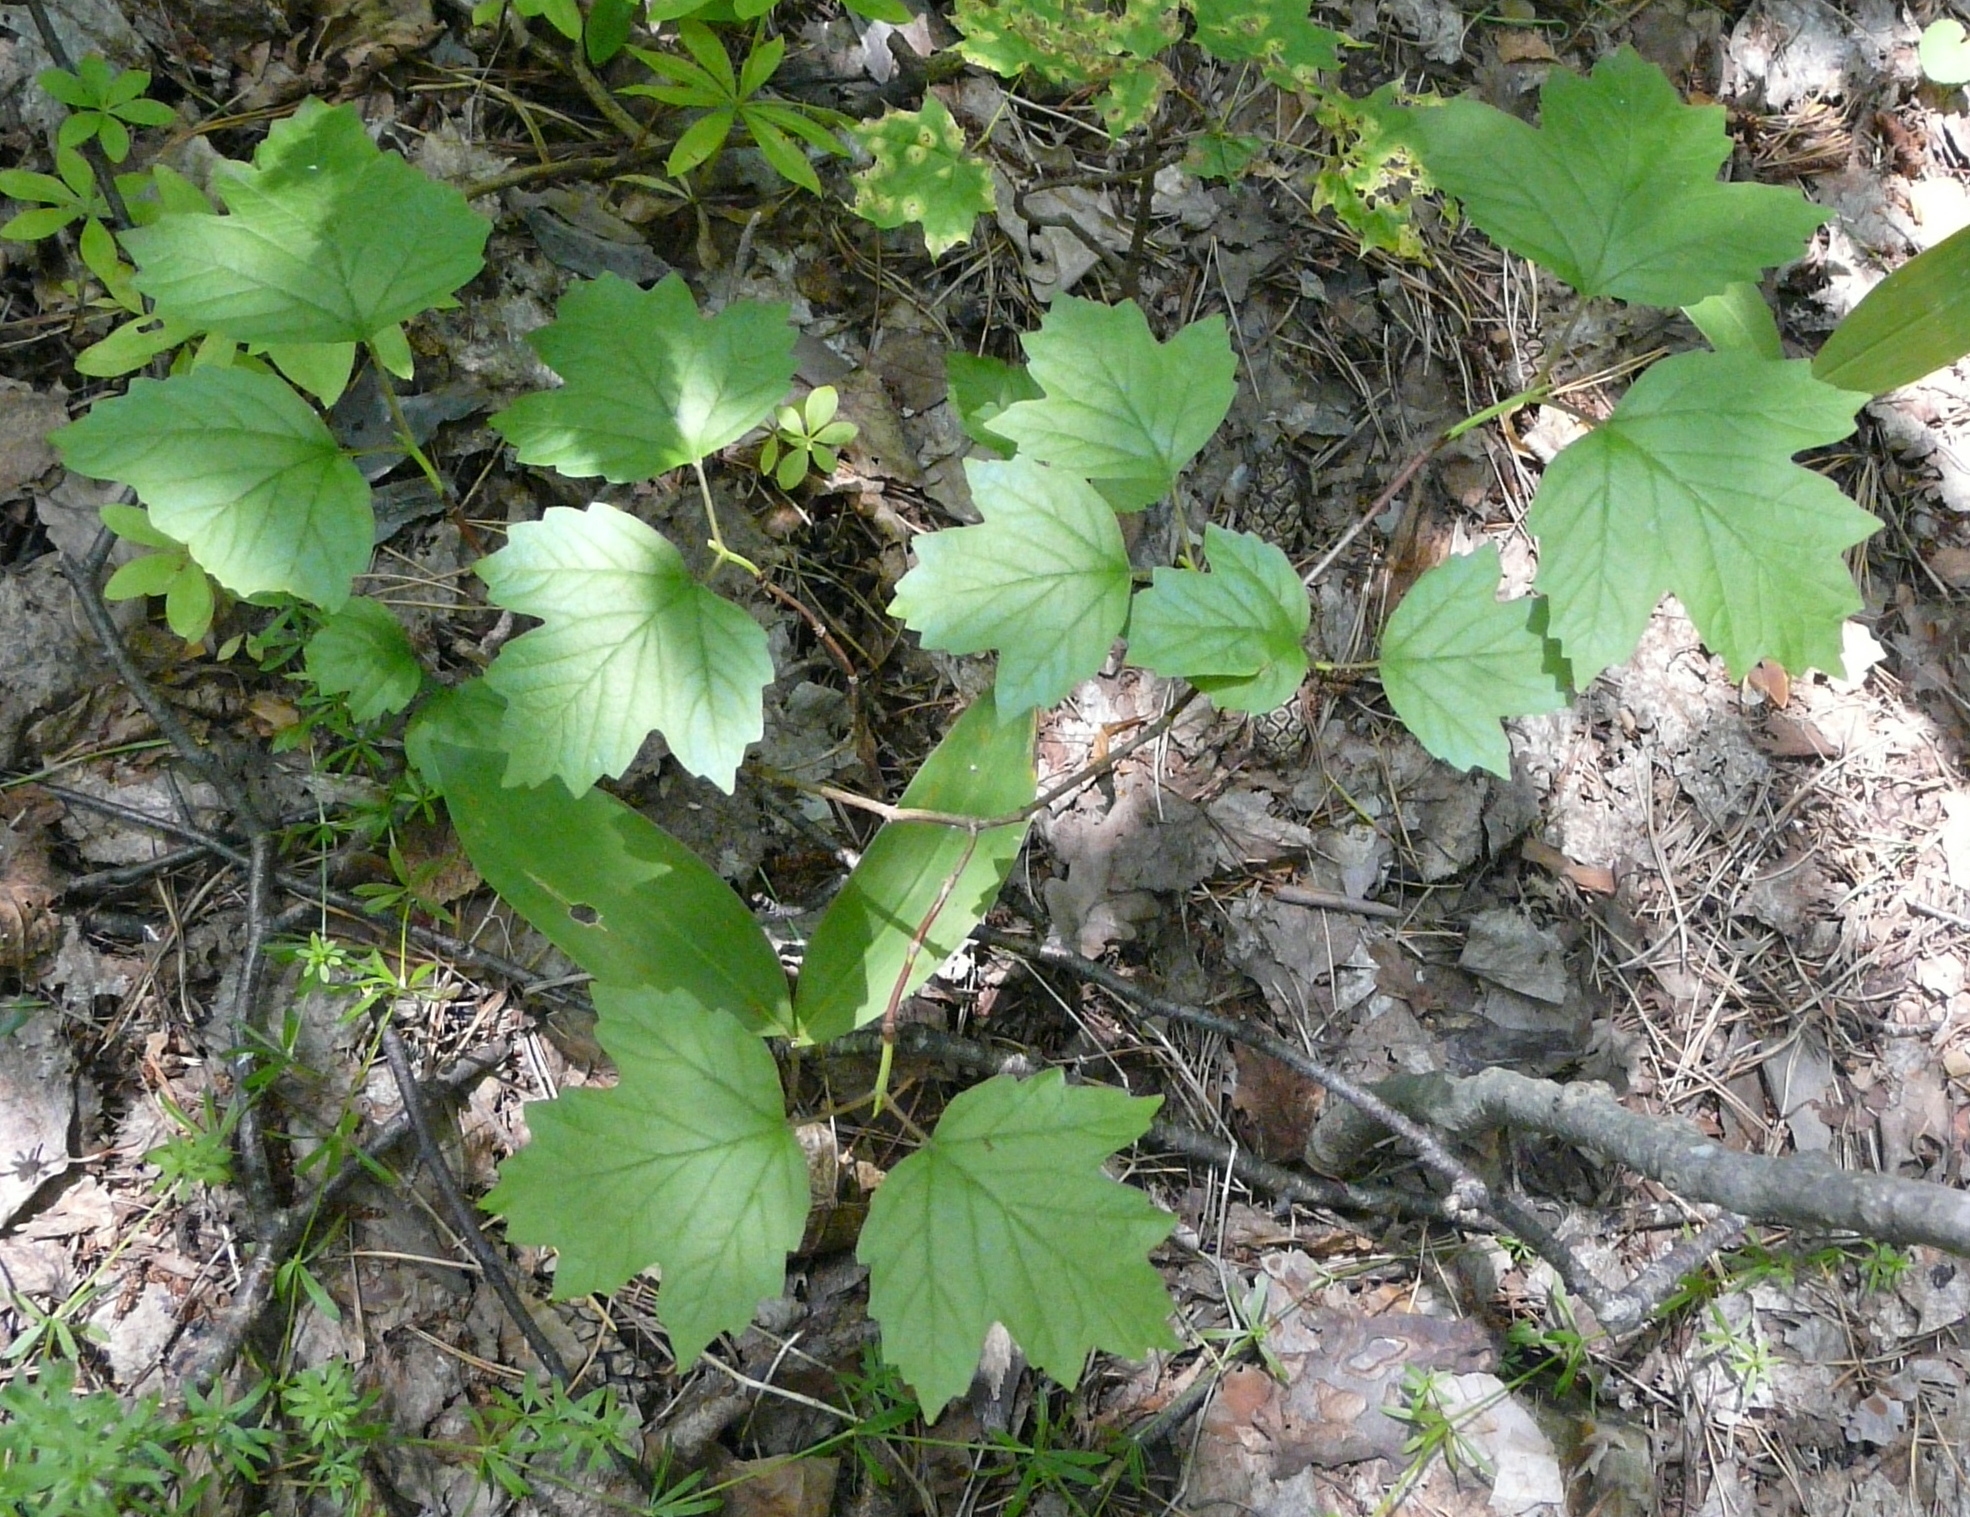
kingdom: Plantae
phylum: Tracheophyta
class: Magnoliopsida
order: Dipsacales
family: Viburnaceae
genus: Viburnum
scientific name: Viburnum opulus
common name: Guelder-rose
